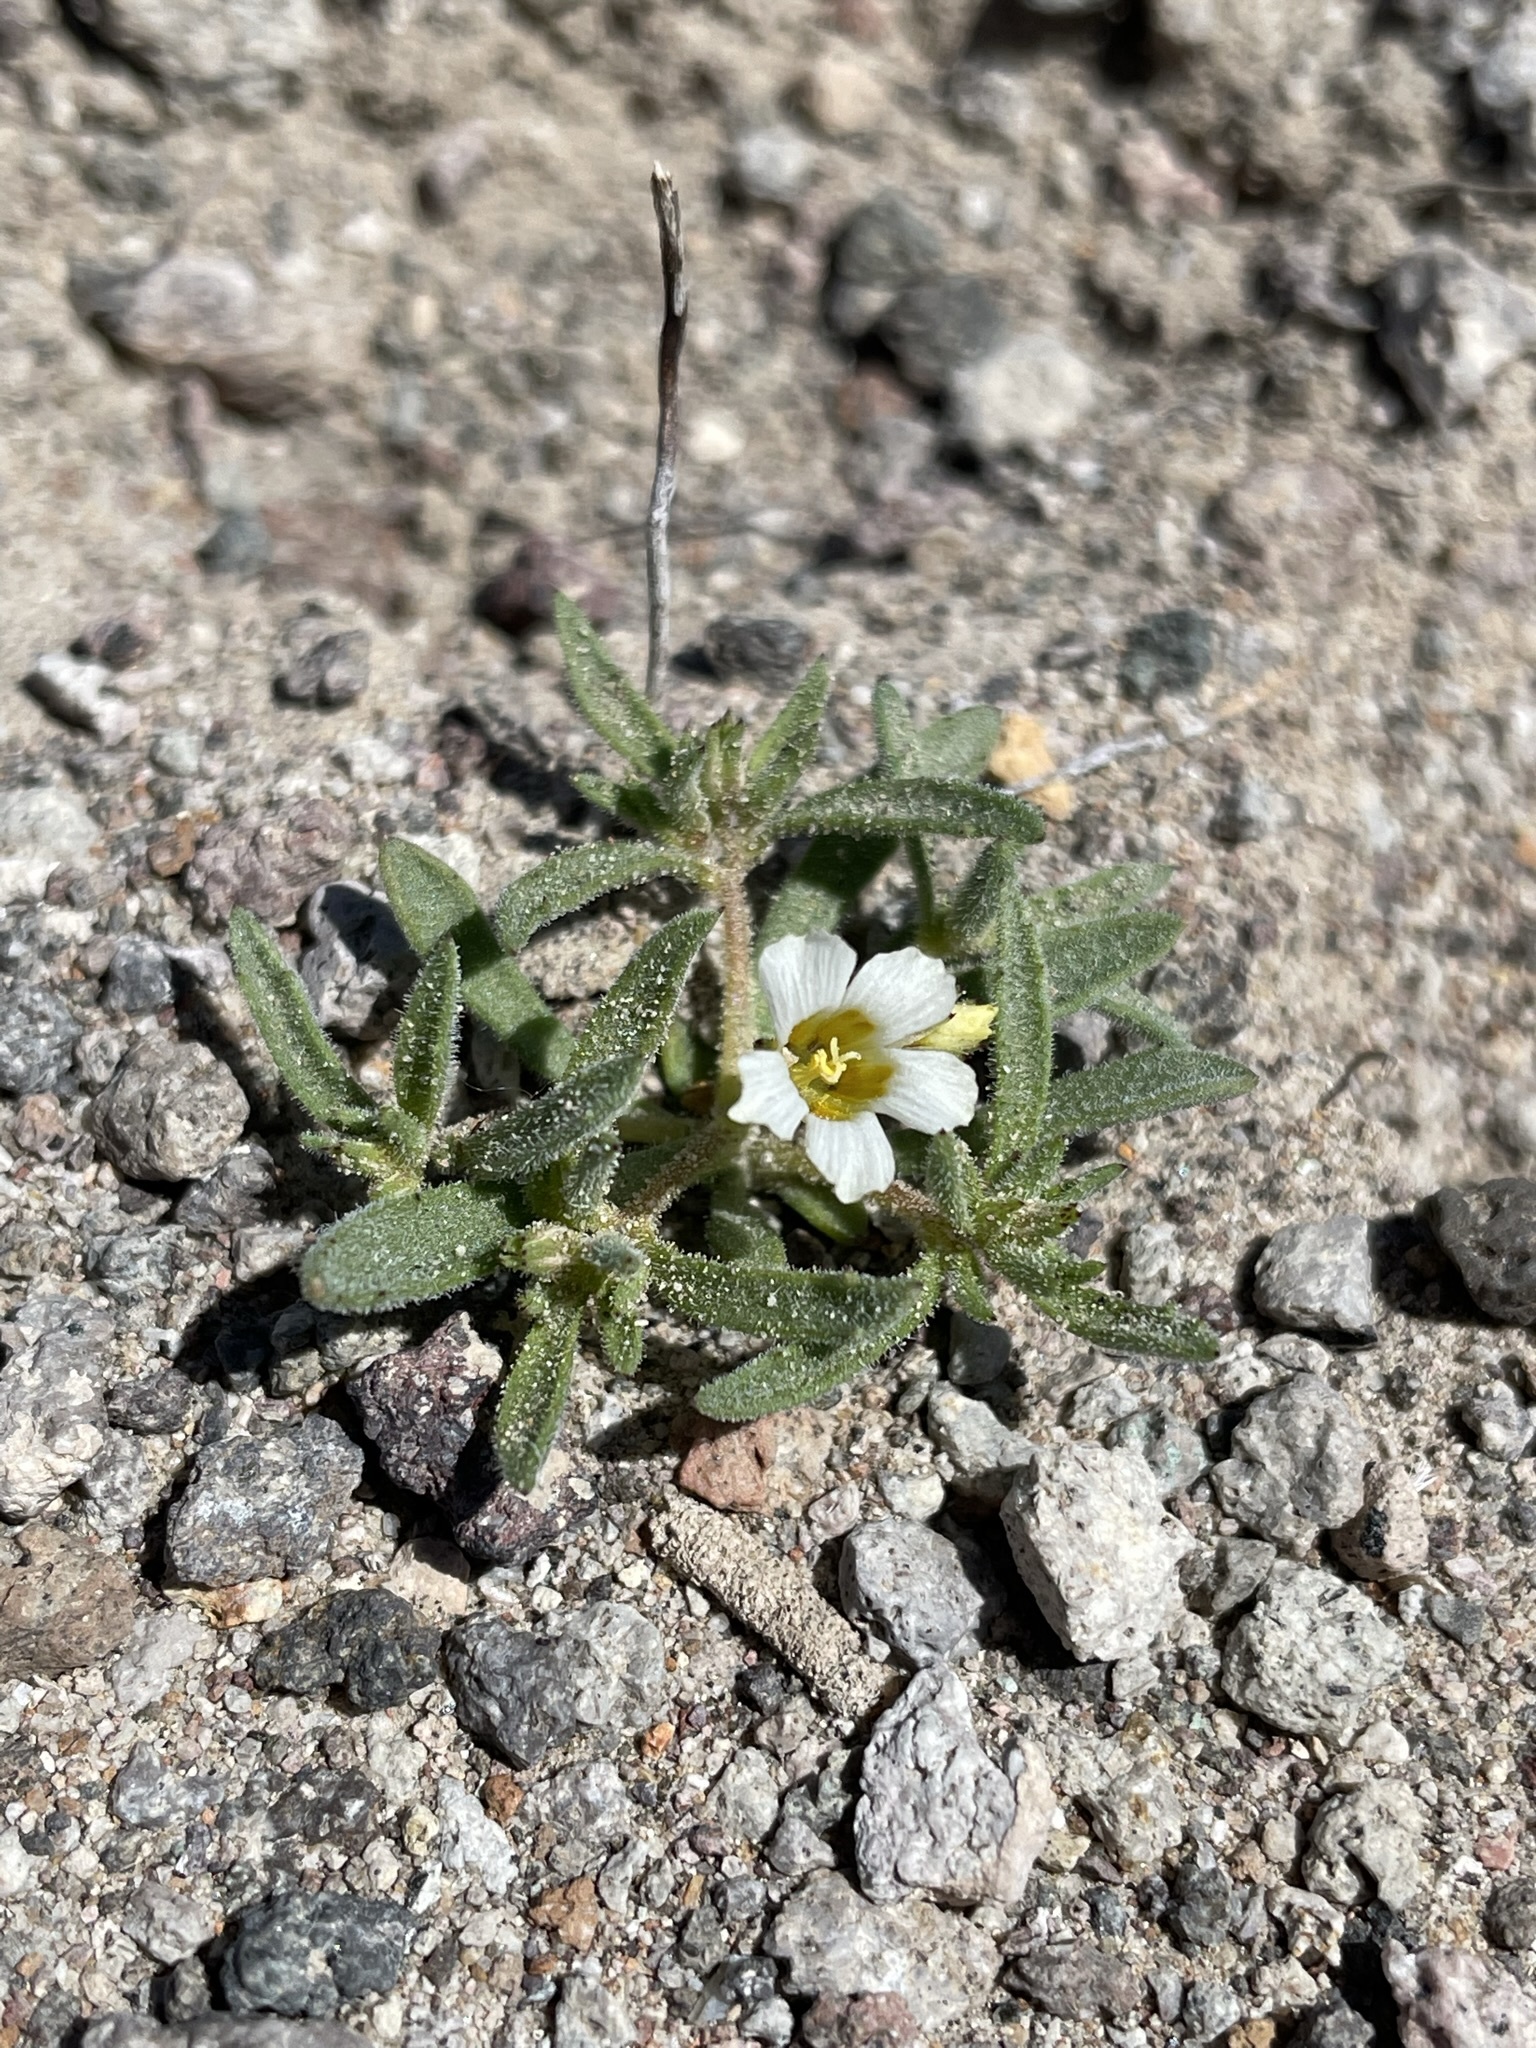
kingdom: Plantae
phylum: Tracheophyta
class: Magnoliopsida
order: Ericales
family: Polemoniaceae
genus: Linanthus
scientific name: Linanthus campanulatus
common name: Bellshape gilia
